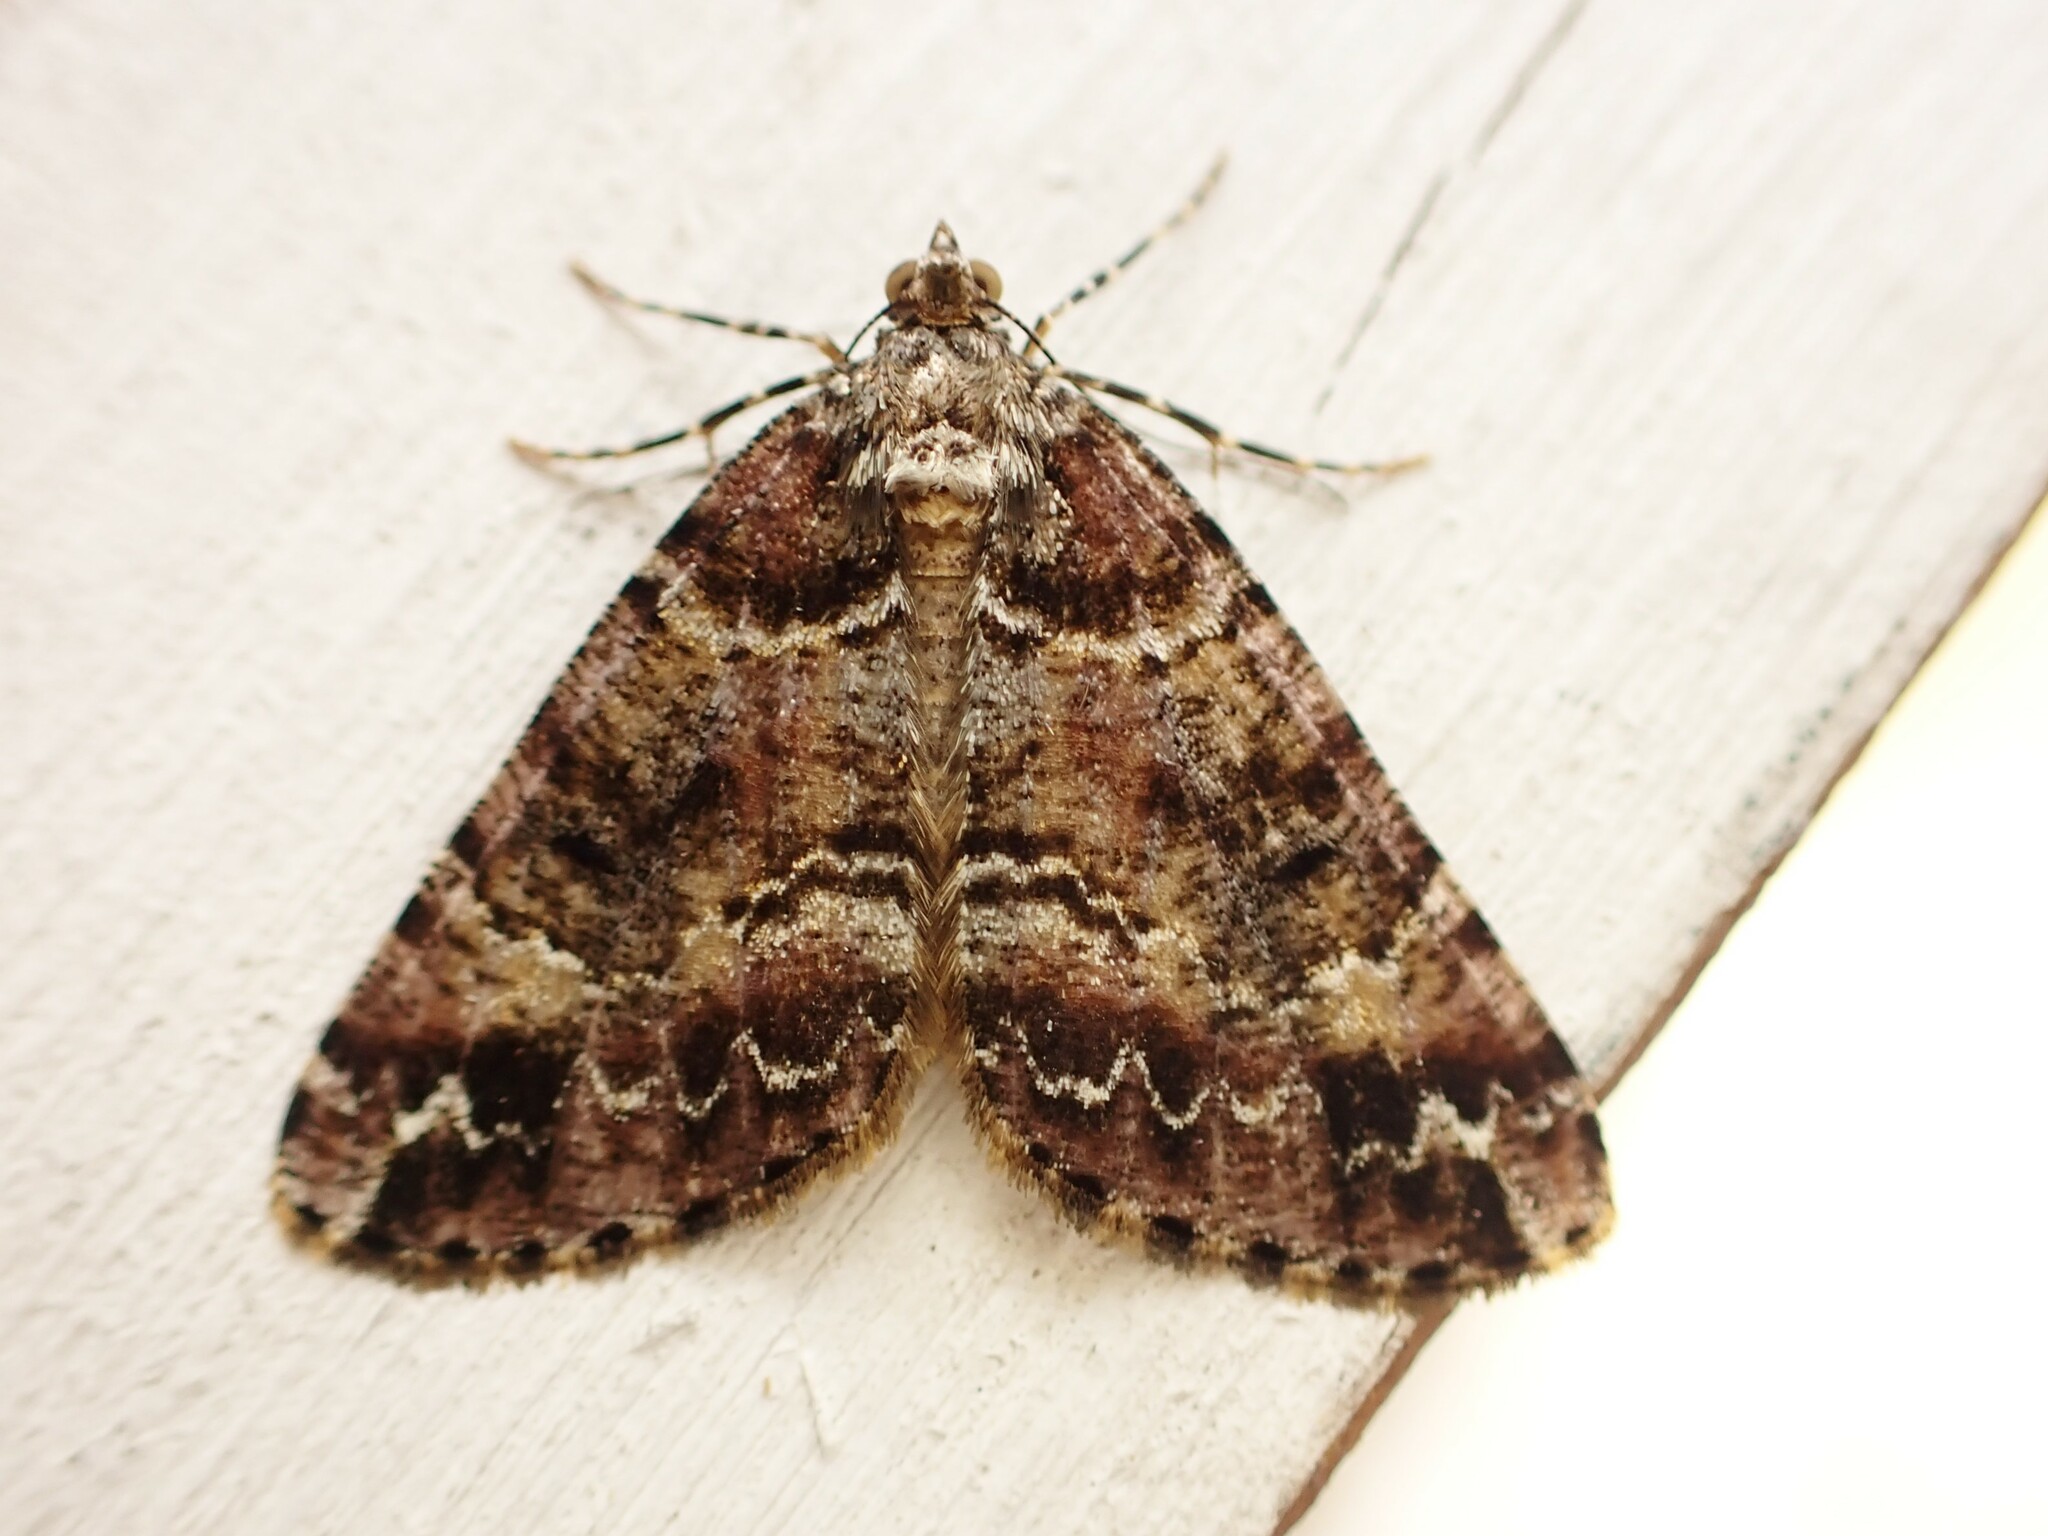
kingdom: Animalia
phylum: Arthropoda
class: Insecta
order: Lepidoptera
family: Geometridae
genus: Pseudocoremia
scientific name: Pseudocoremia productata
